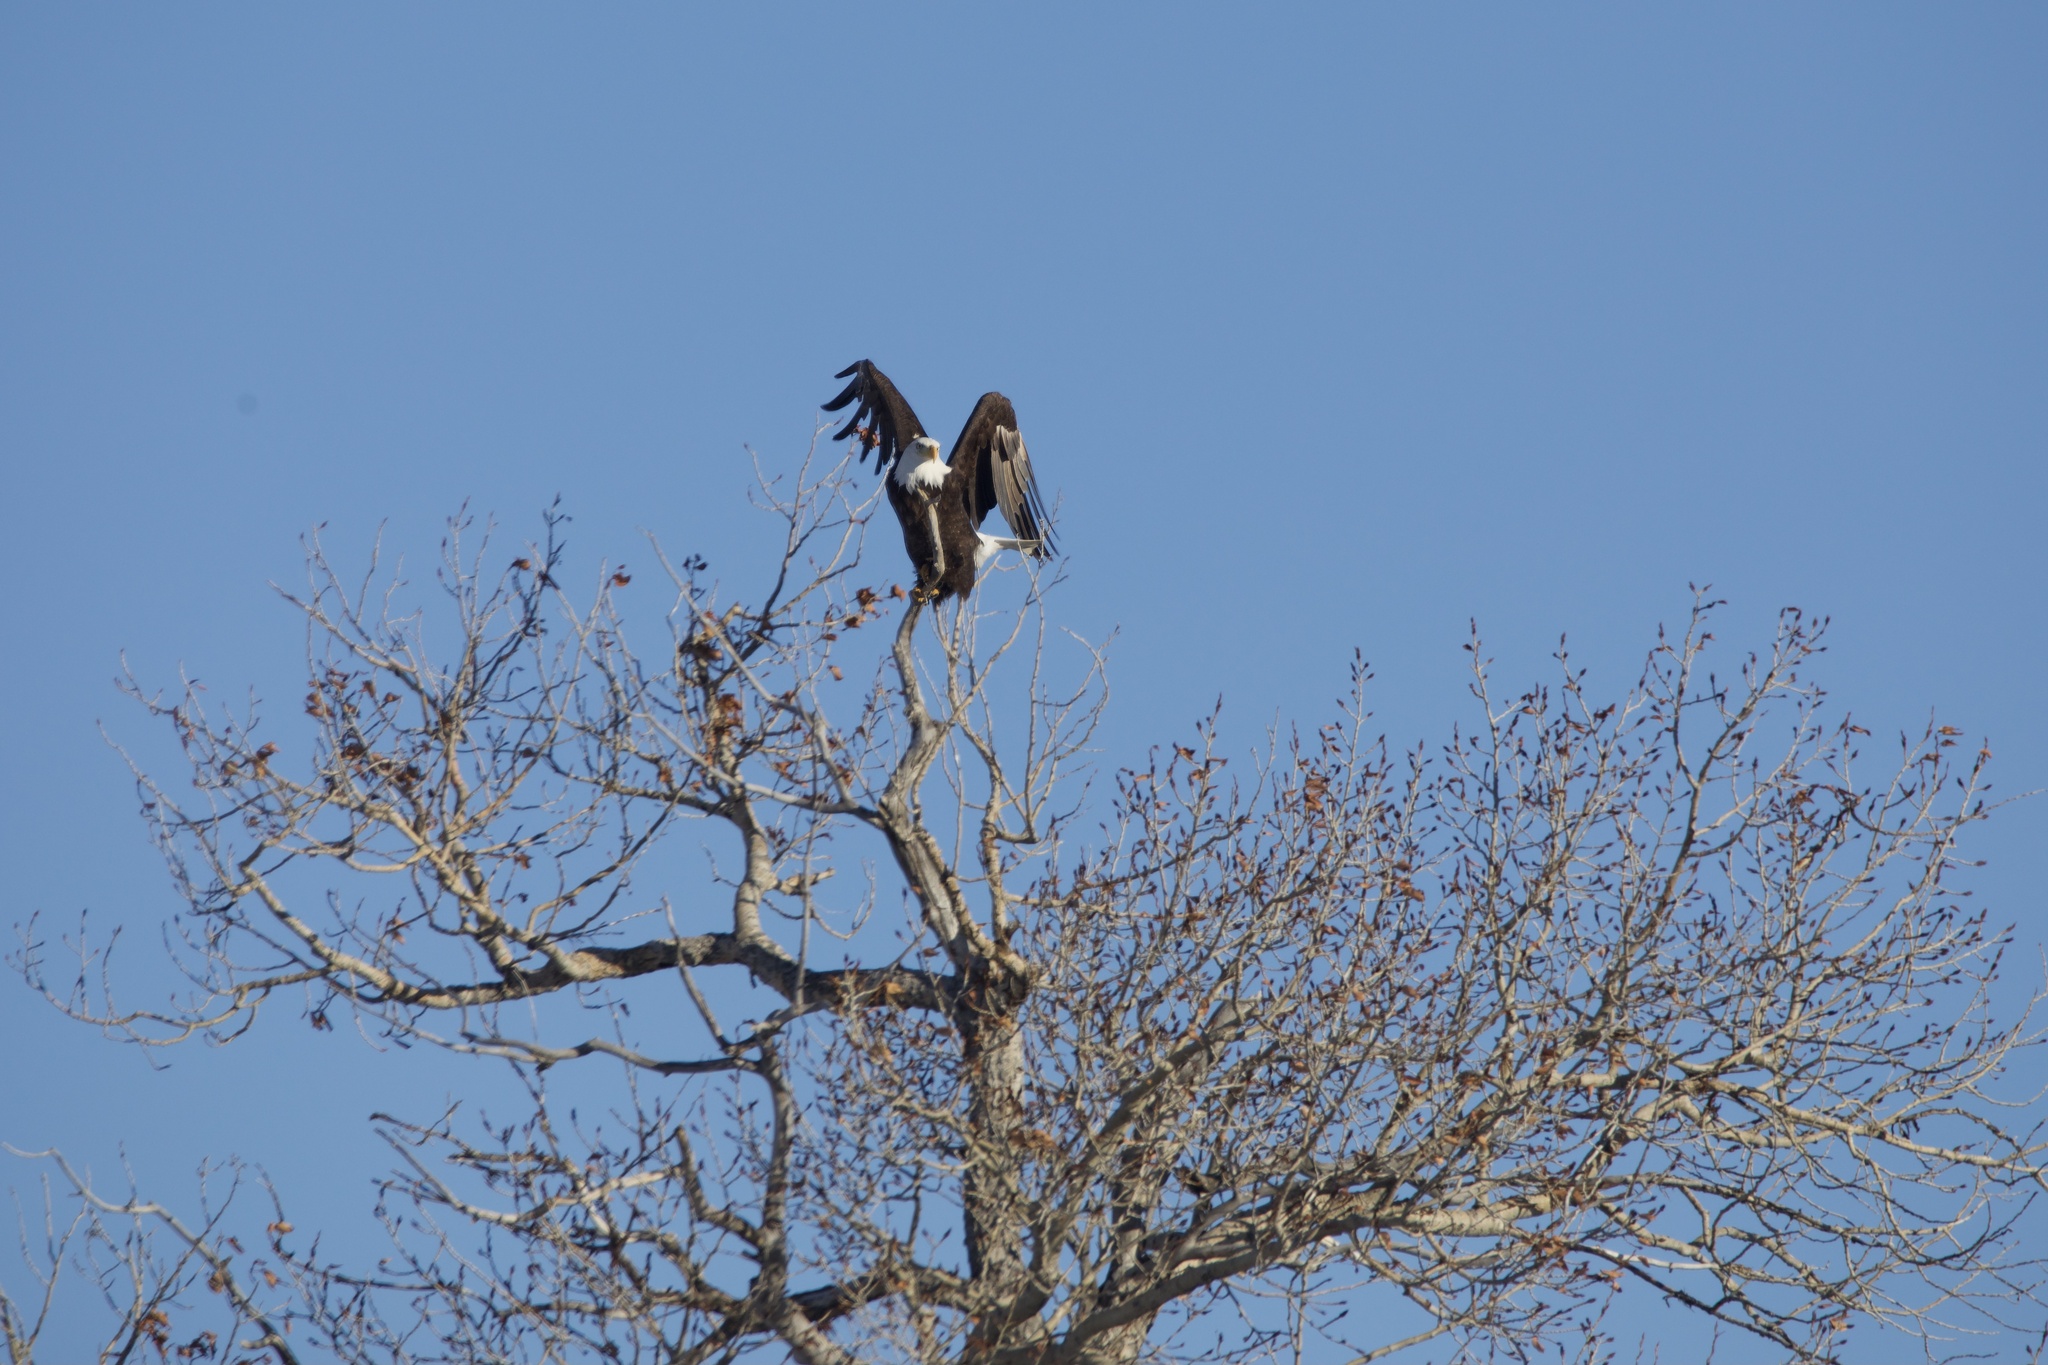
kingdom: Animalia
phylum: Chordata
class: Aves
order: Accipitriformes
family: Accipitridae
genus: Haliaeetus
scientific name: Haliaeetus leucocephalus
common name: Bald eagle
